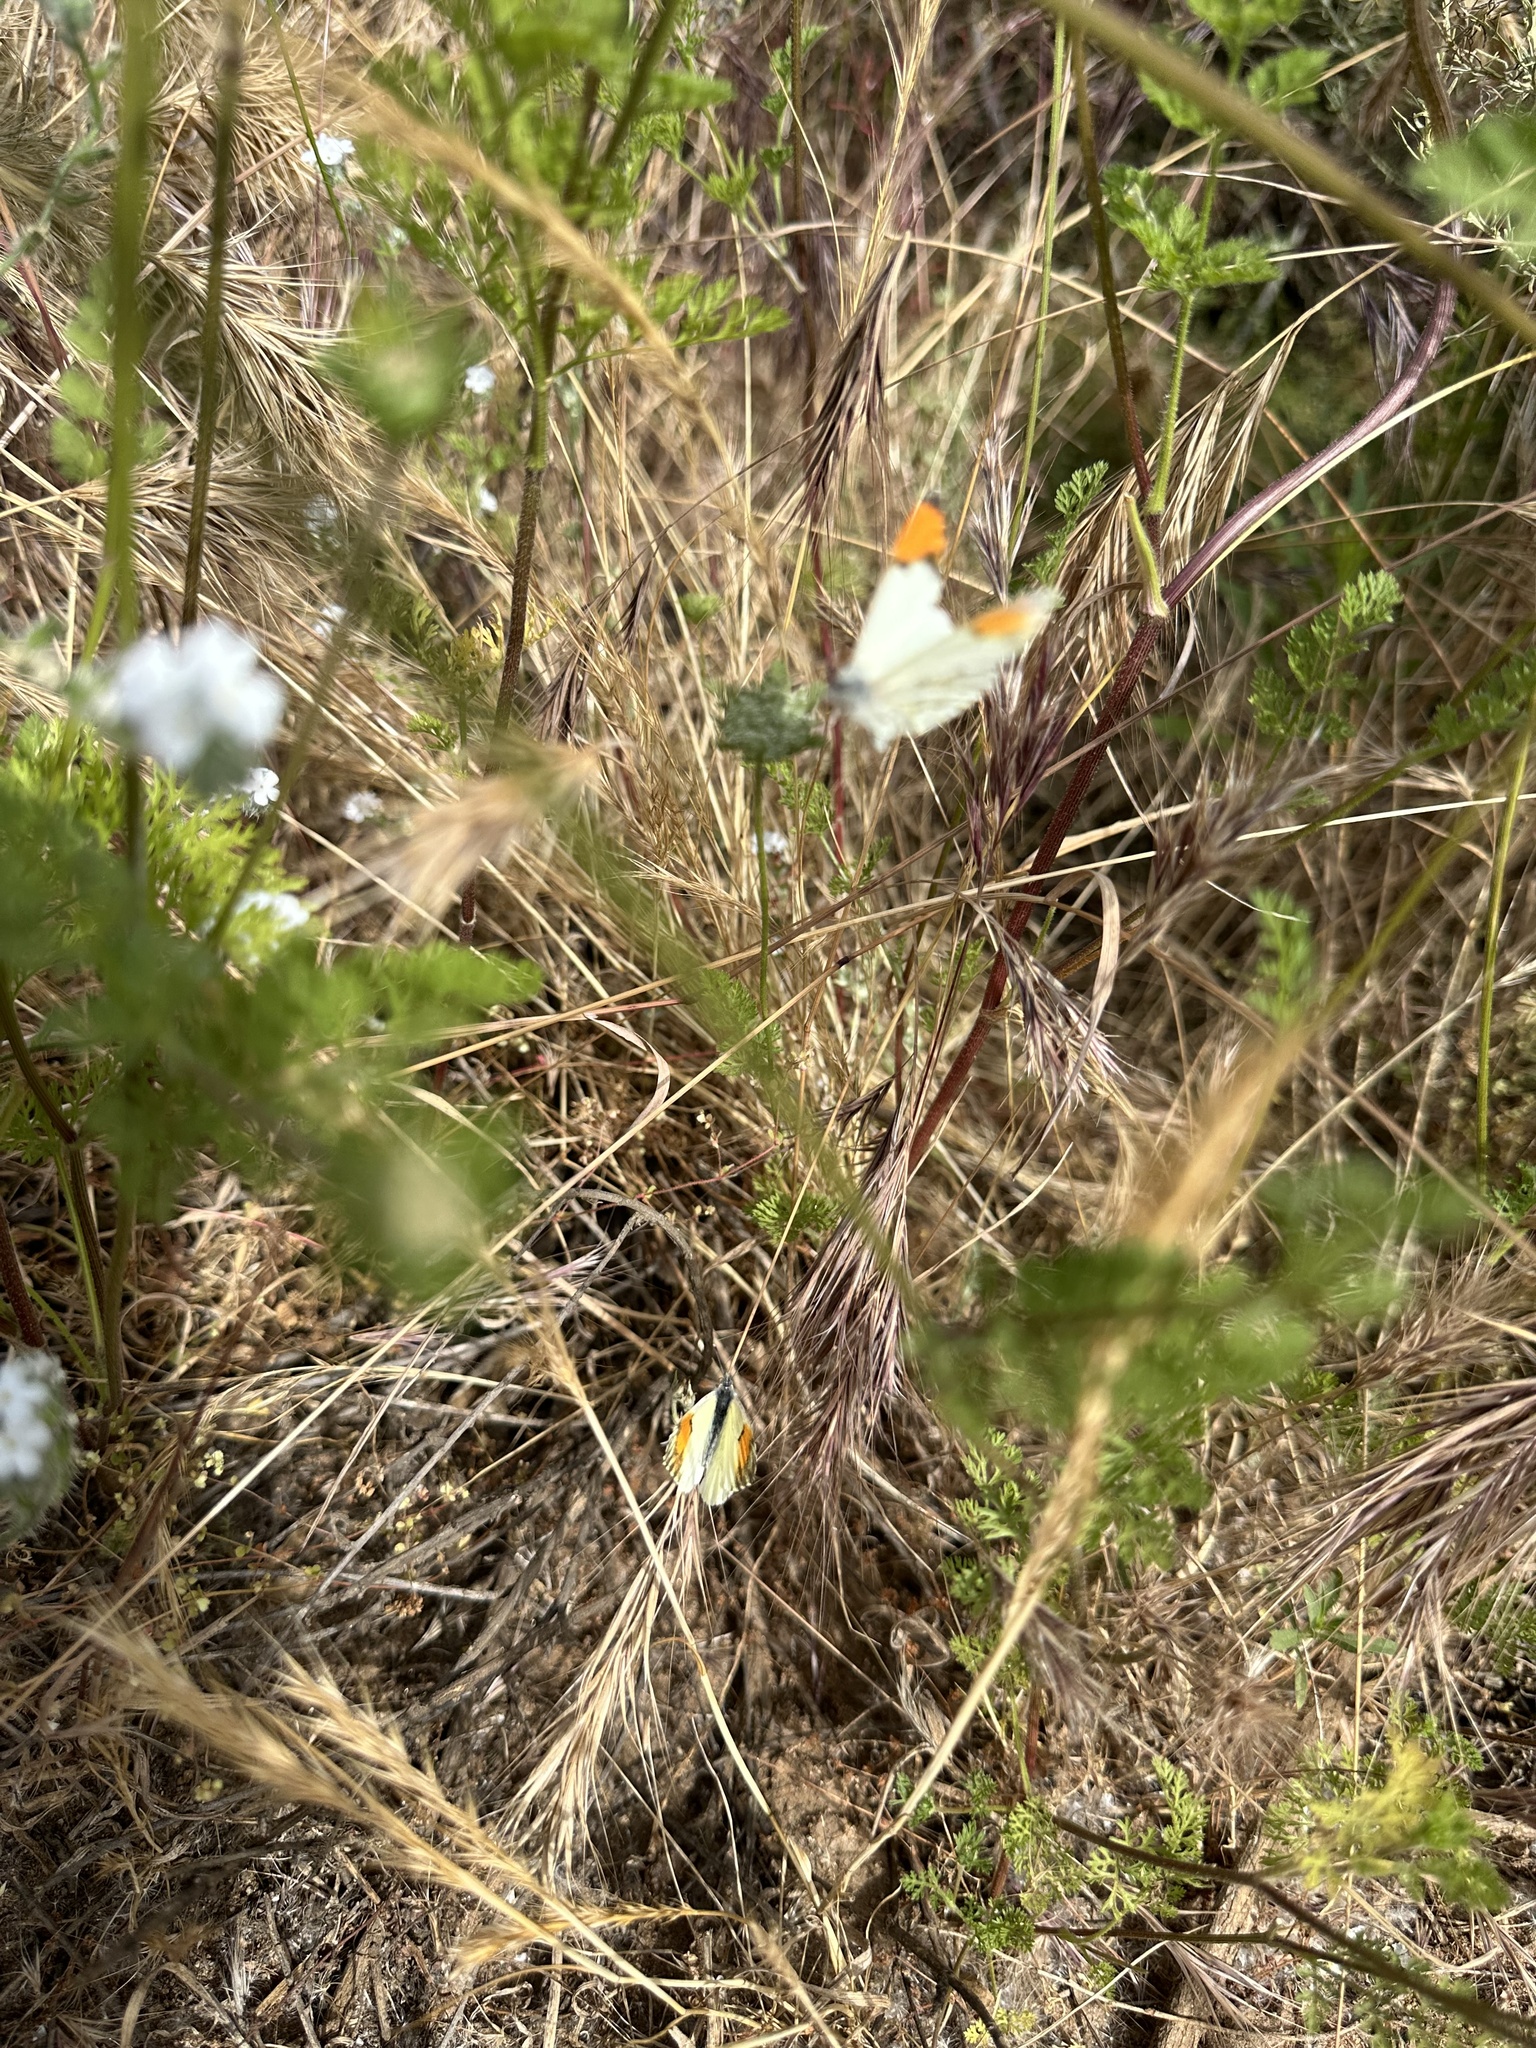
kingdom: Animalia
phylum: Arthropoda
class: Insecta
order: Lepidoptera
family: Pieridae
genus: Anthocharis
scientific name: Anthocharis sara
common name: Sara's orangetip
